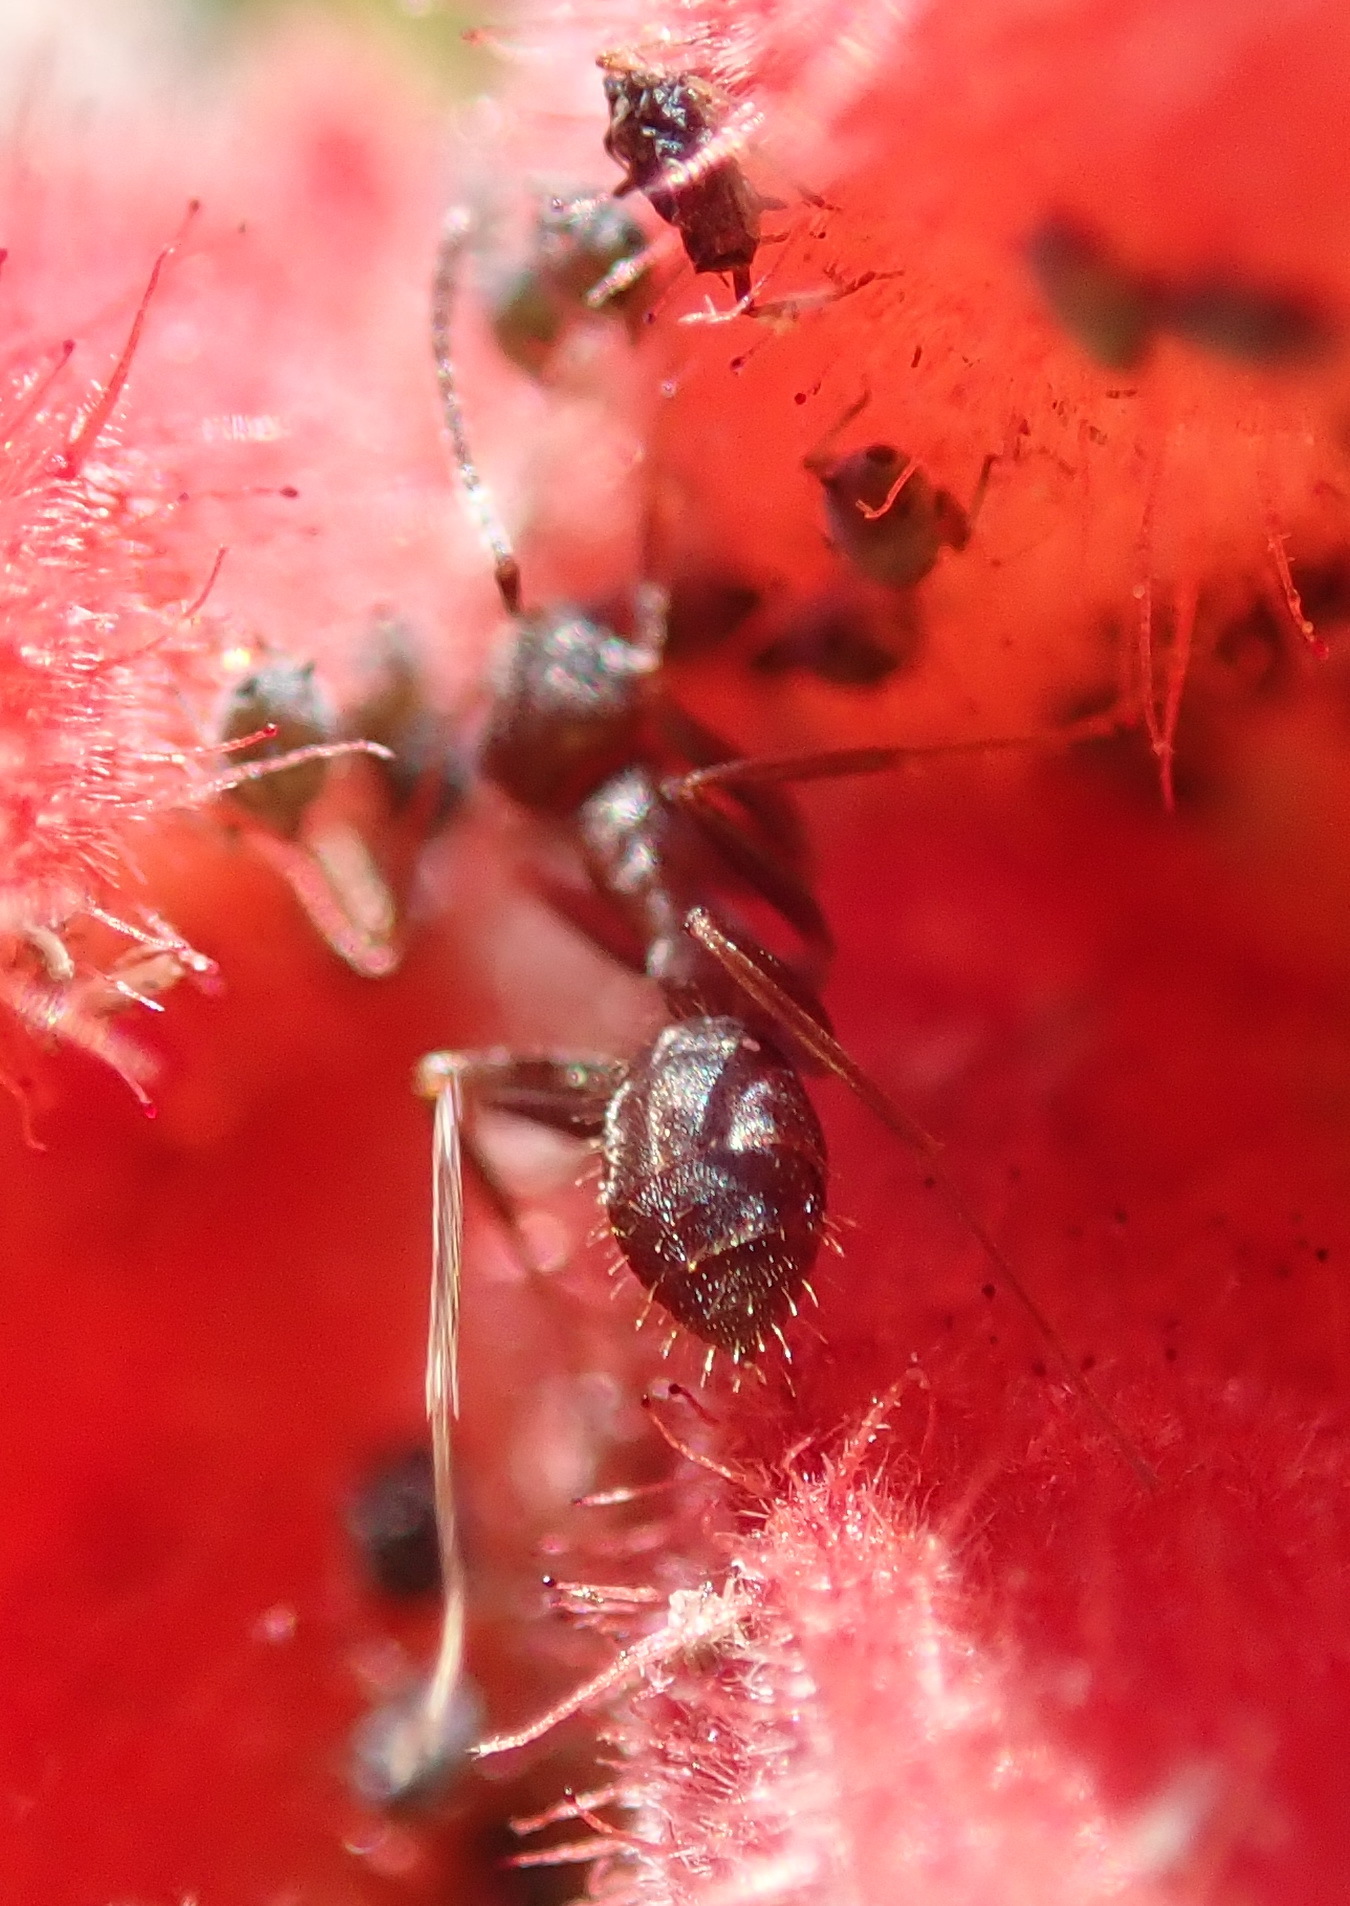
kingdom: Animalia
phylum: Arthropoda
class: Insecta
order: Hymenoptera
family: Formicidae
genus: Anoplolepis
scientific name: Anoplolepis steingroeveri
